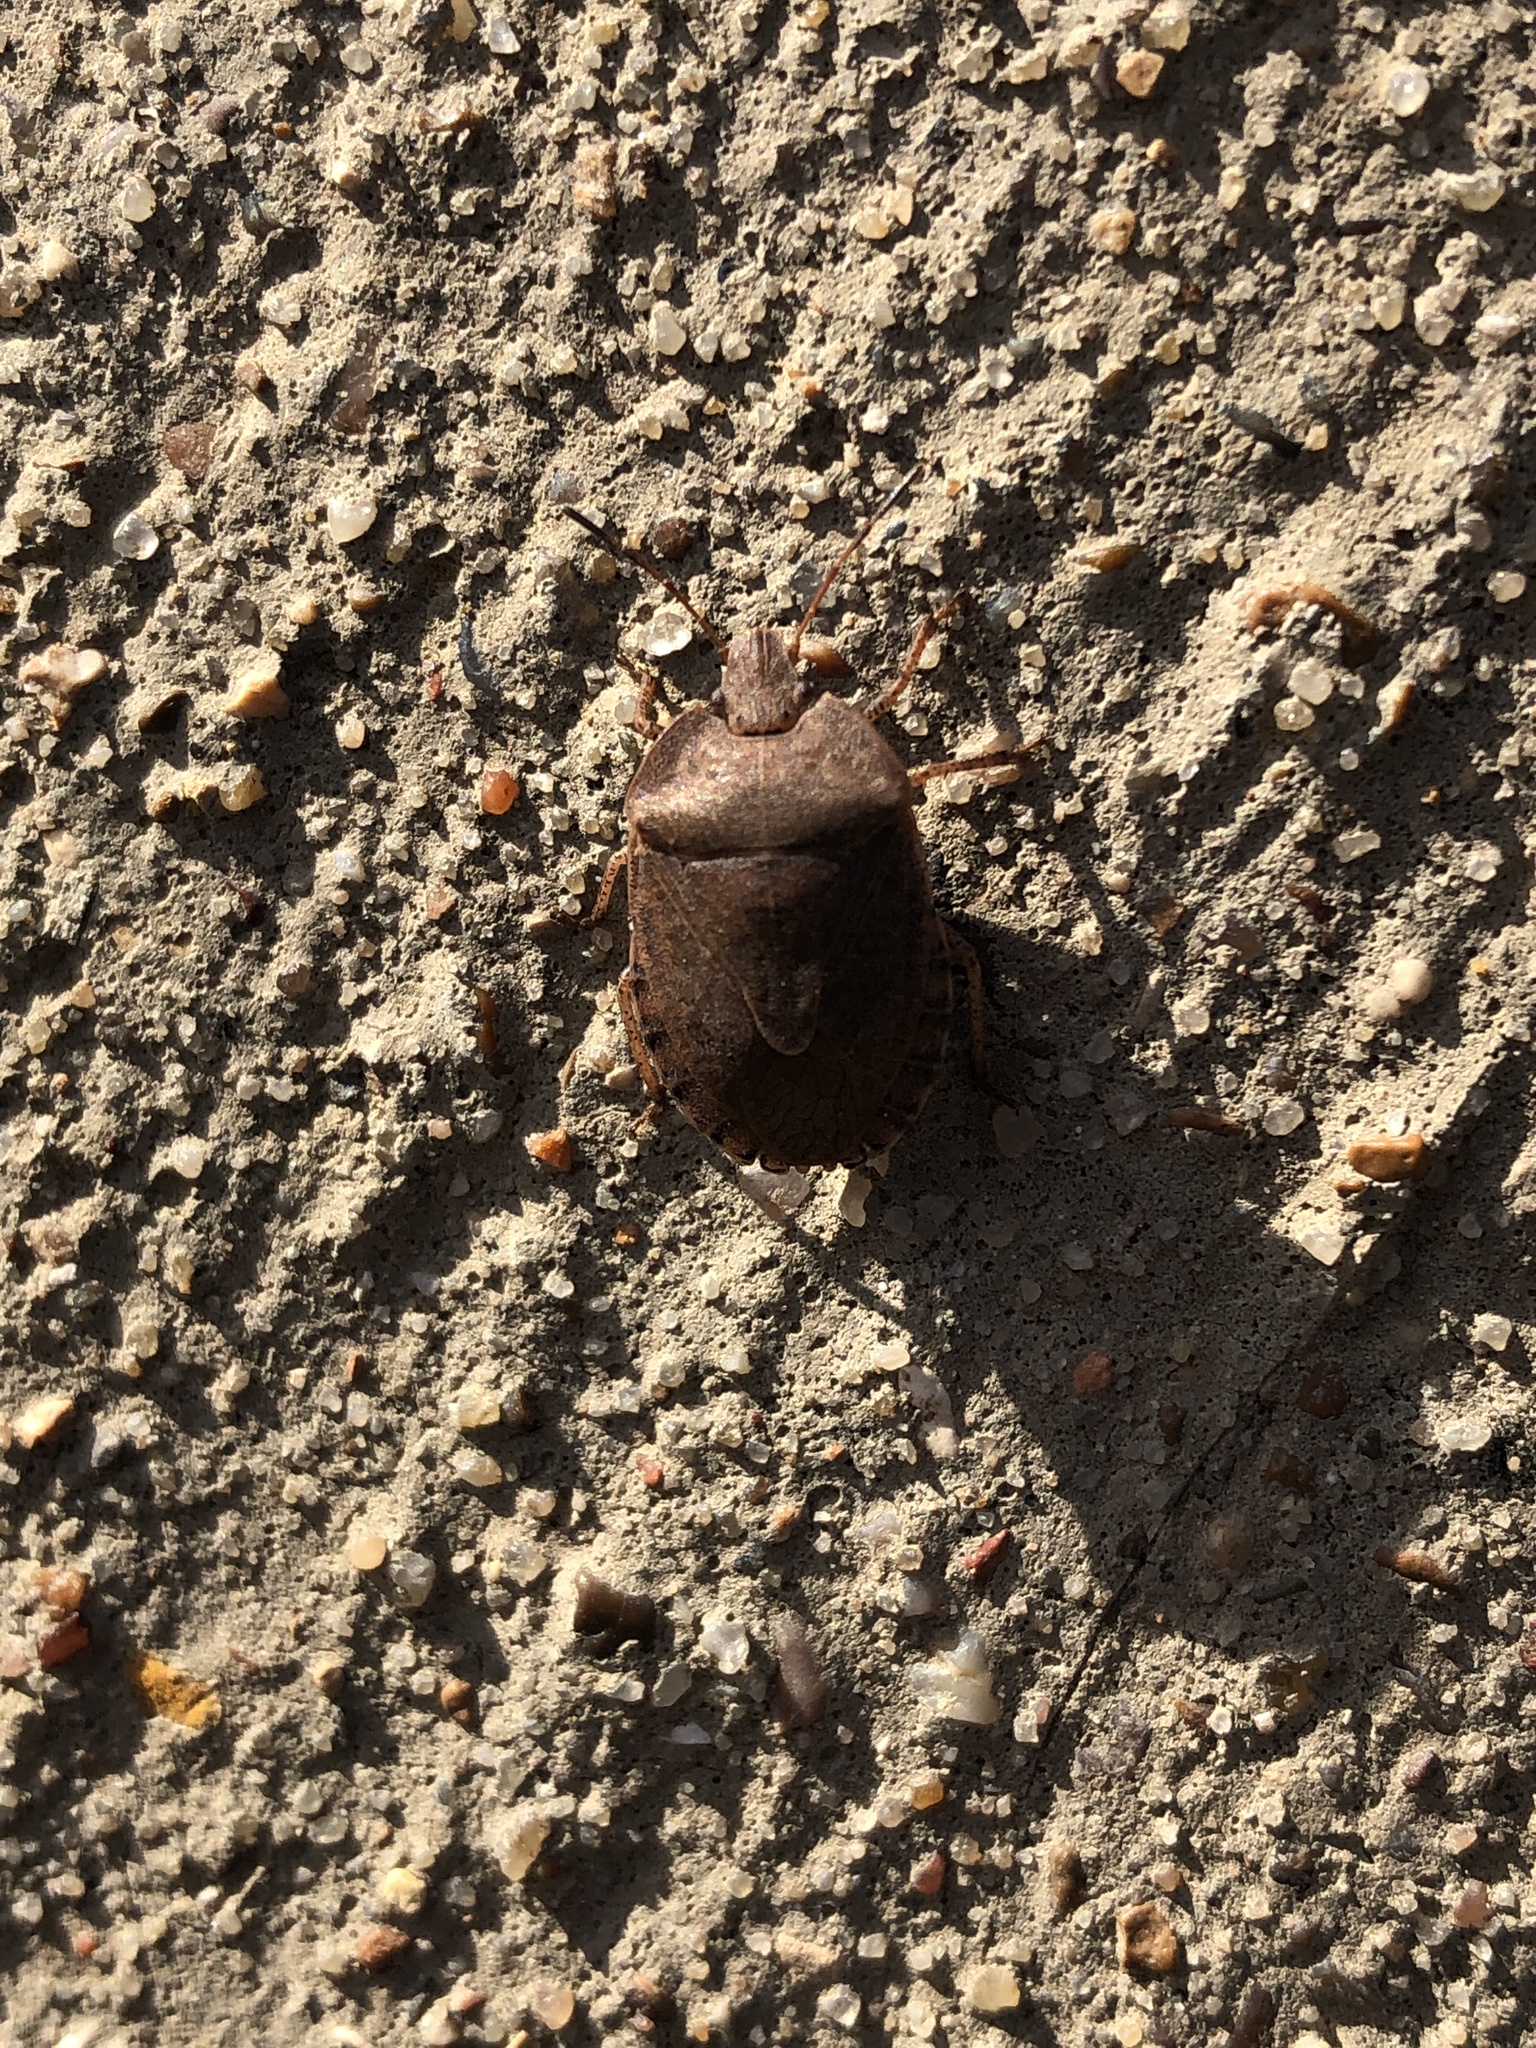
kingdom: Animalia
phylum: Arthropoda
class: Insecta
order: Hemiptera
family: Pentatomidae
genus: Menecles
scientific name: Menecles insertus
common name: Elf shoe stink bug
